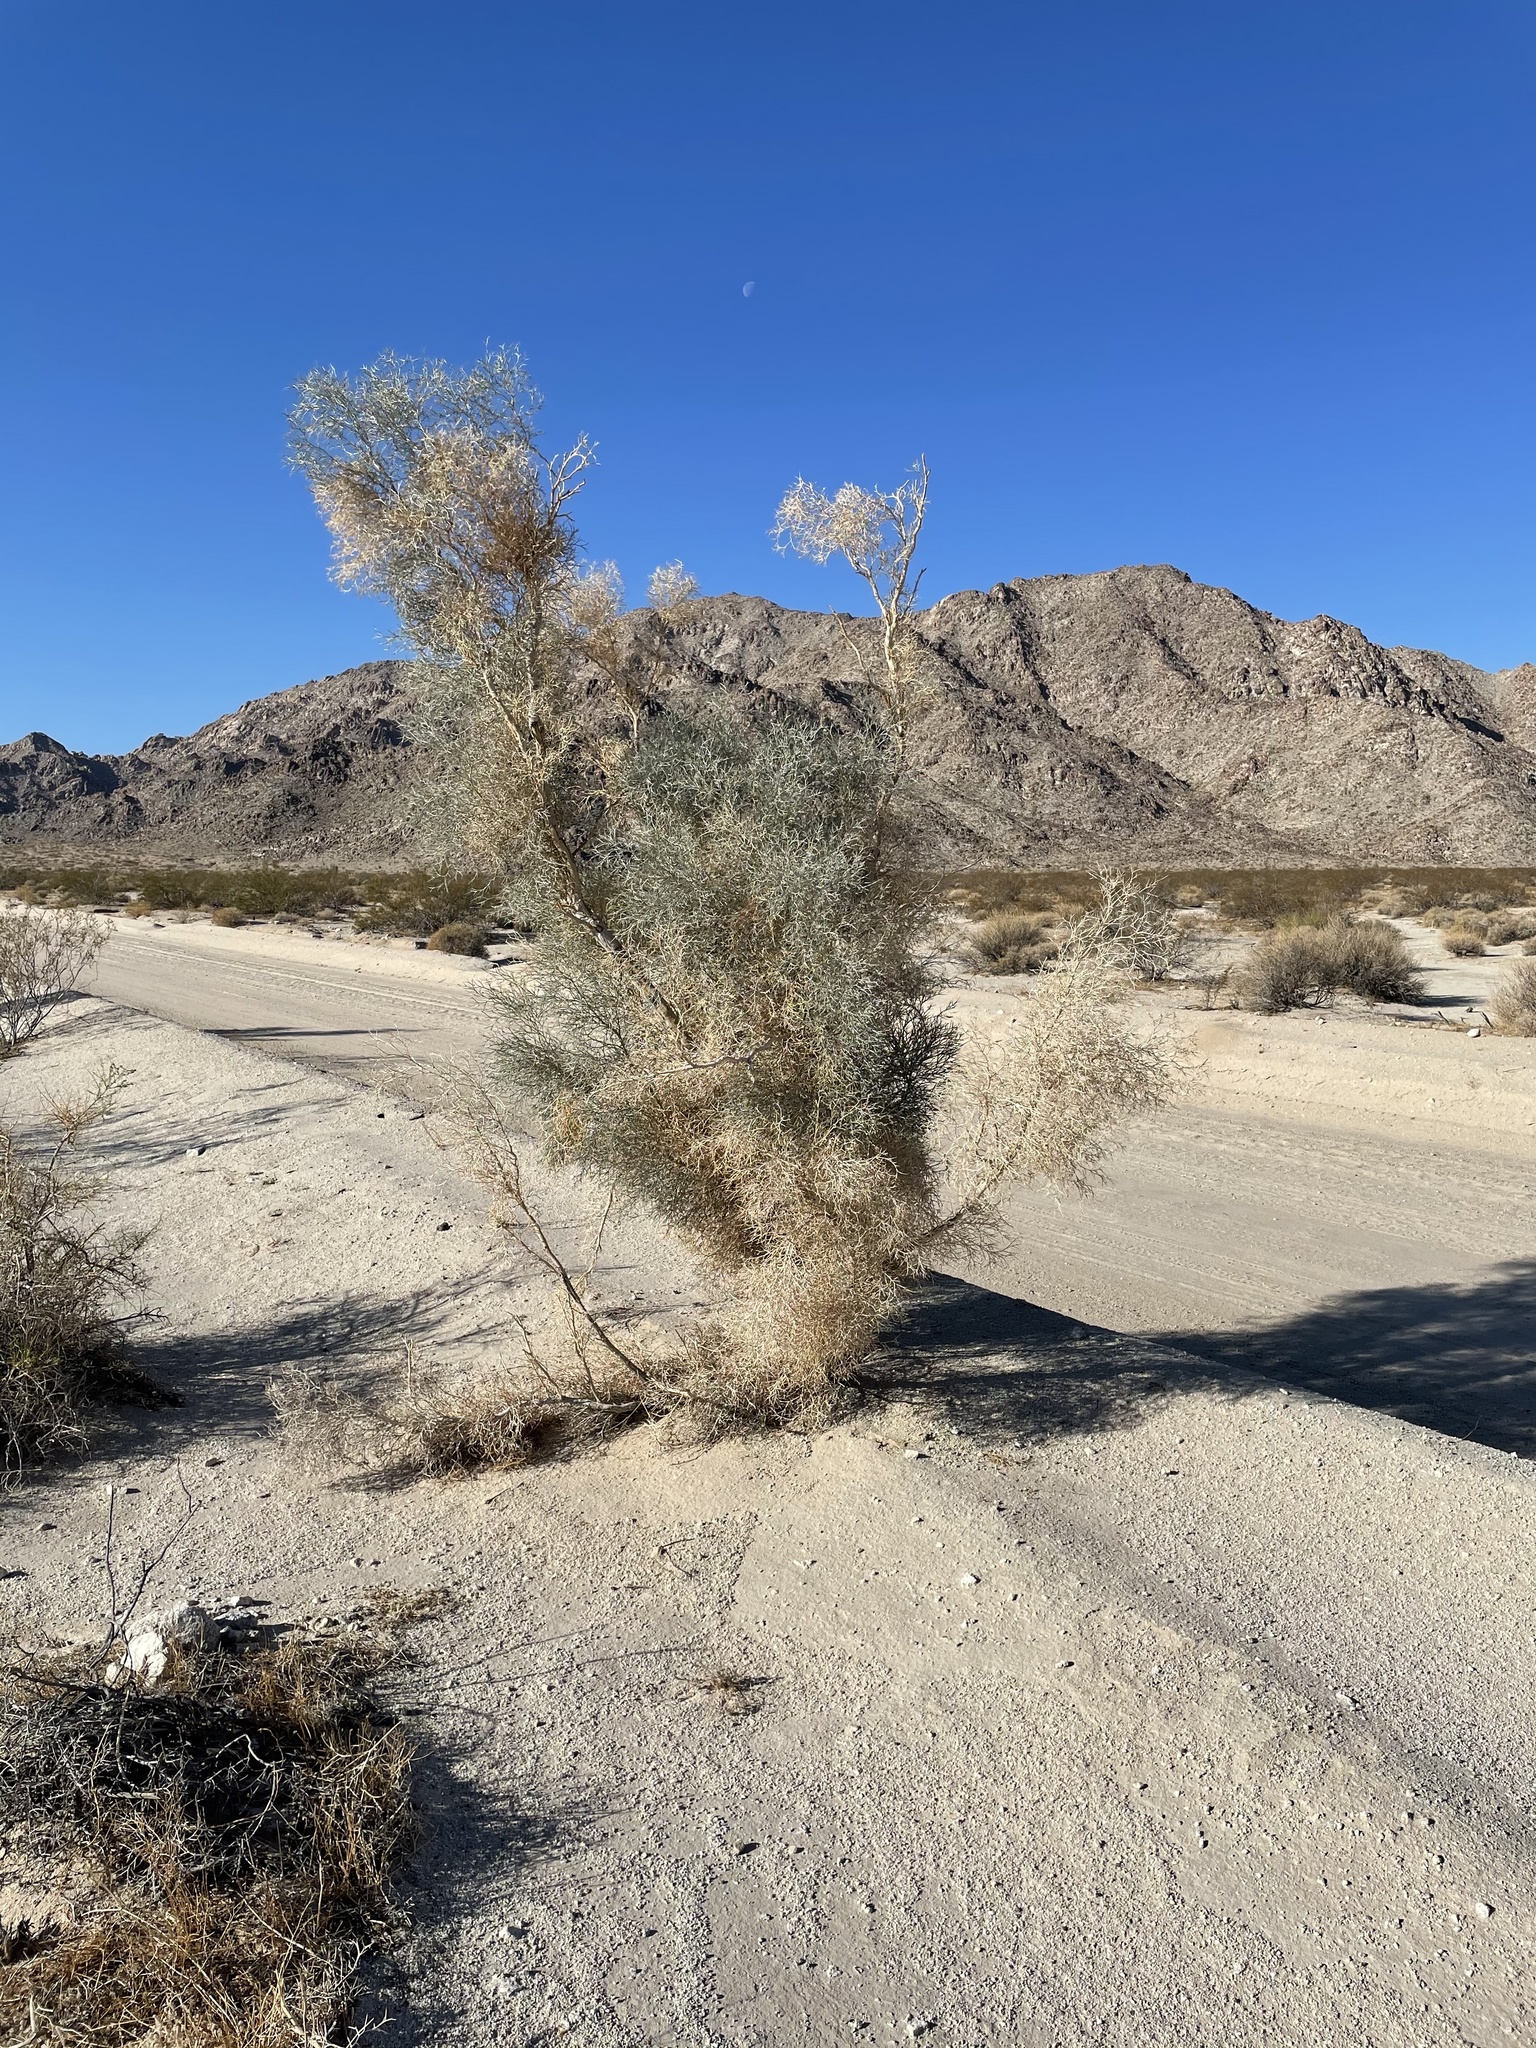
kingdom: Plantae
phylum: Tracheophyta
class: Magnoliopsida
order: Fabales
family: Fabaceae
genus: Psorothamnus
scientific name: Psorothamnus spinosus
